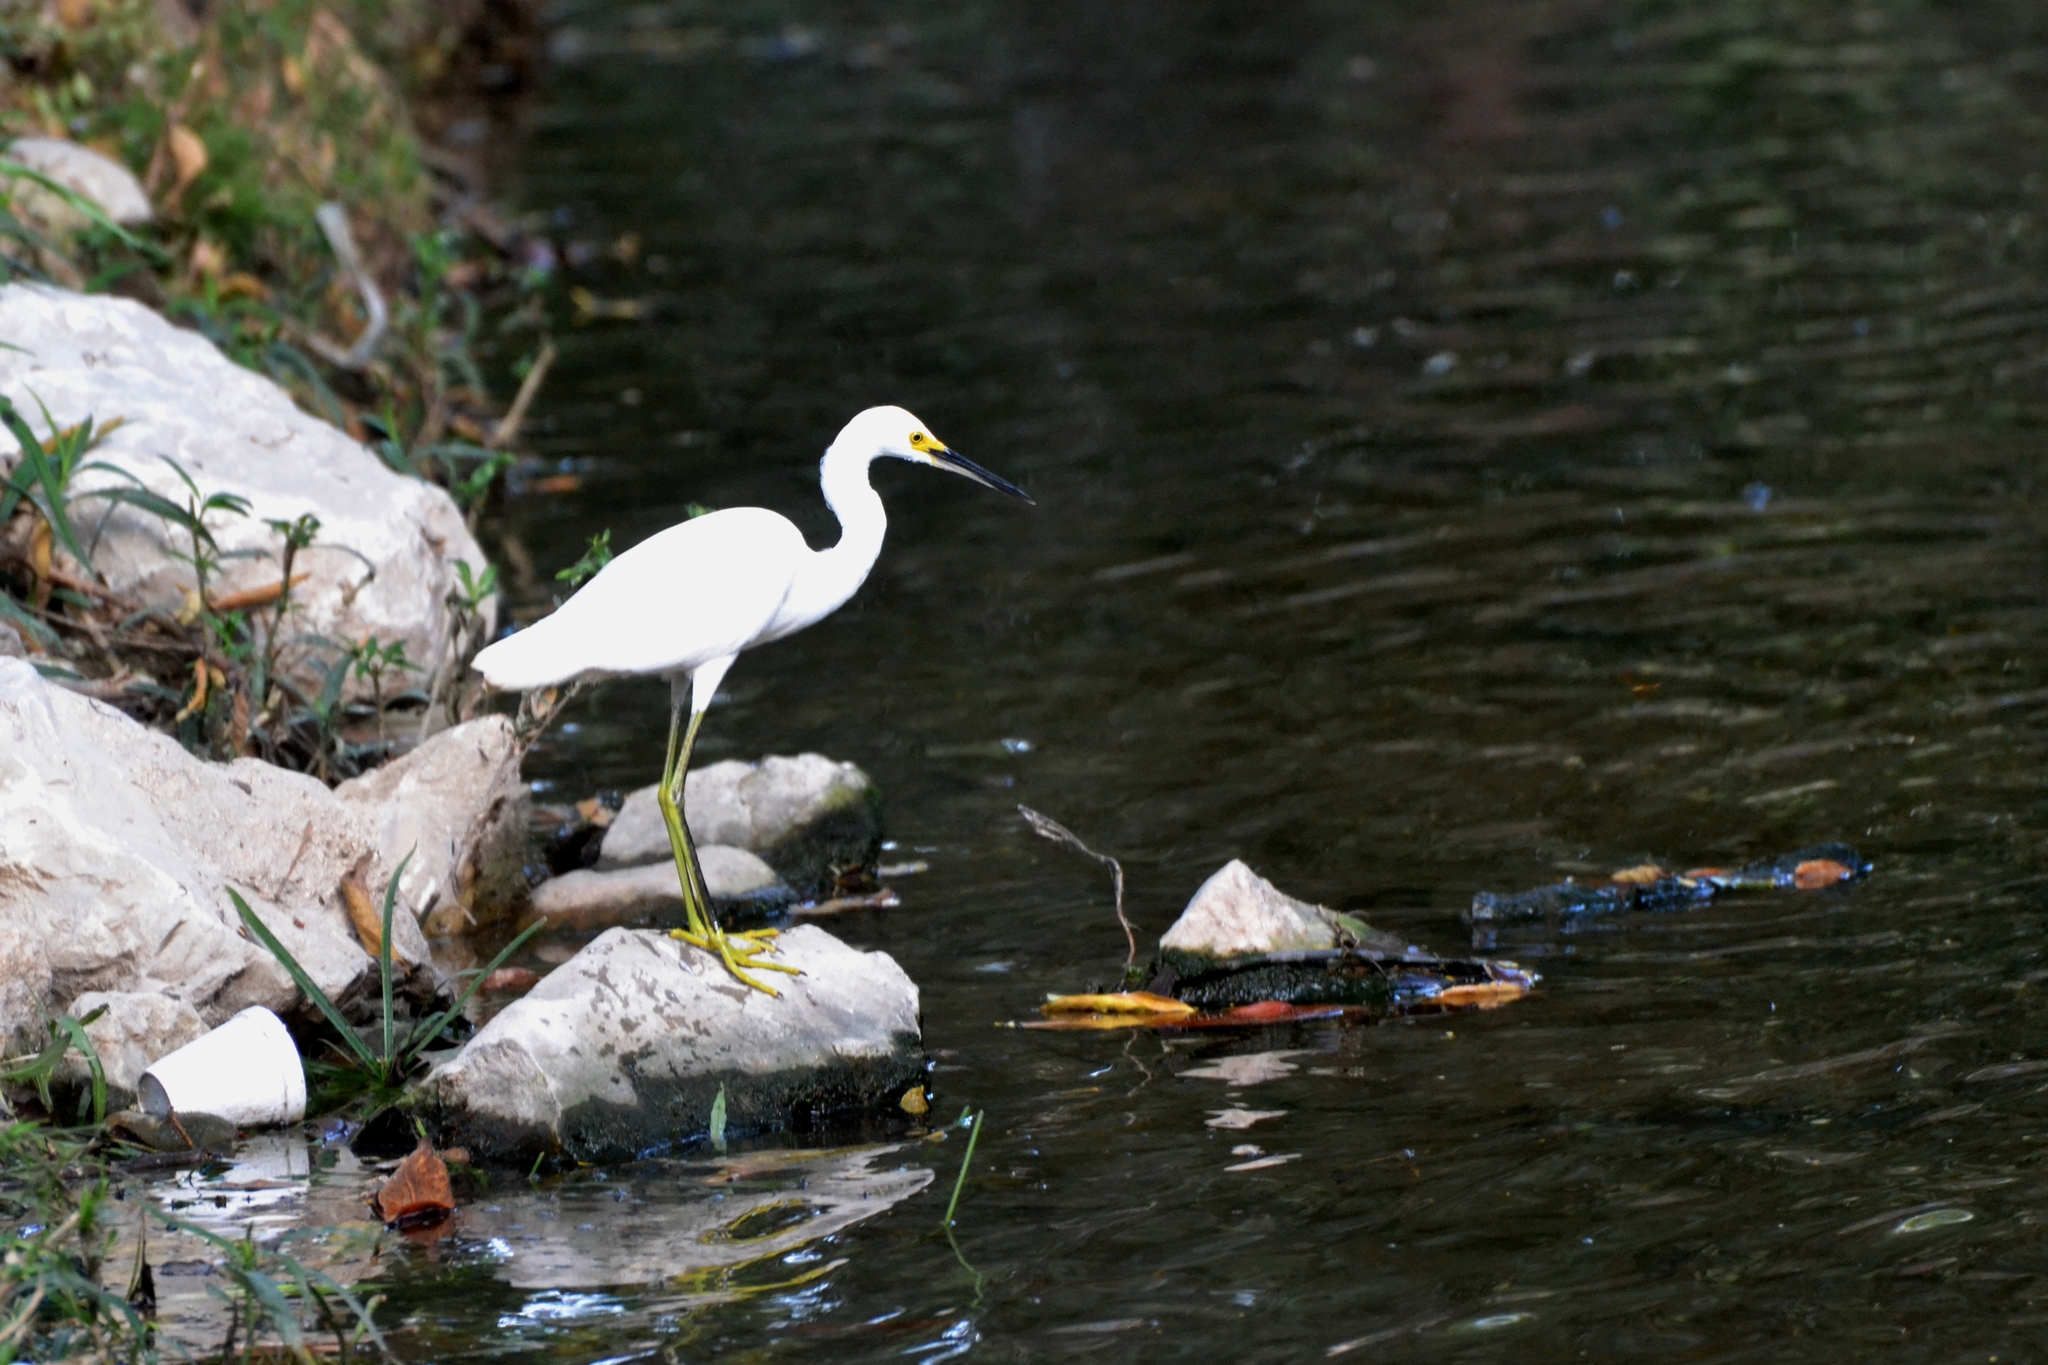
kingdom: Animalia
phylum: Chordata
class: Aves
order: Pelecaniformes
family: Ardeidae
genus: Egretta
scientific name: Egretta thula
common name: Snowy egret
